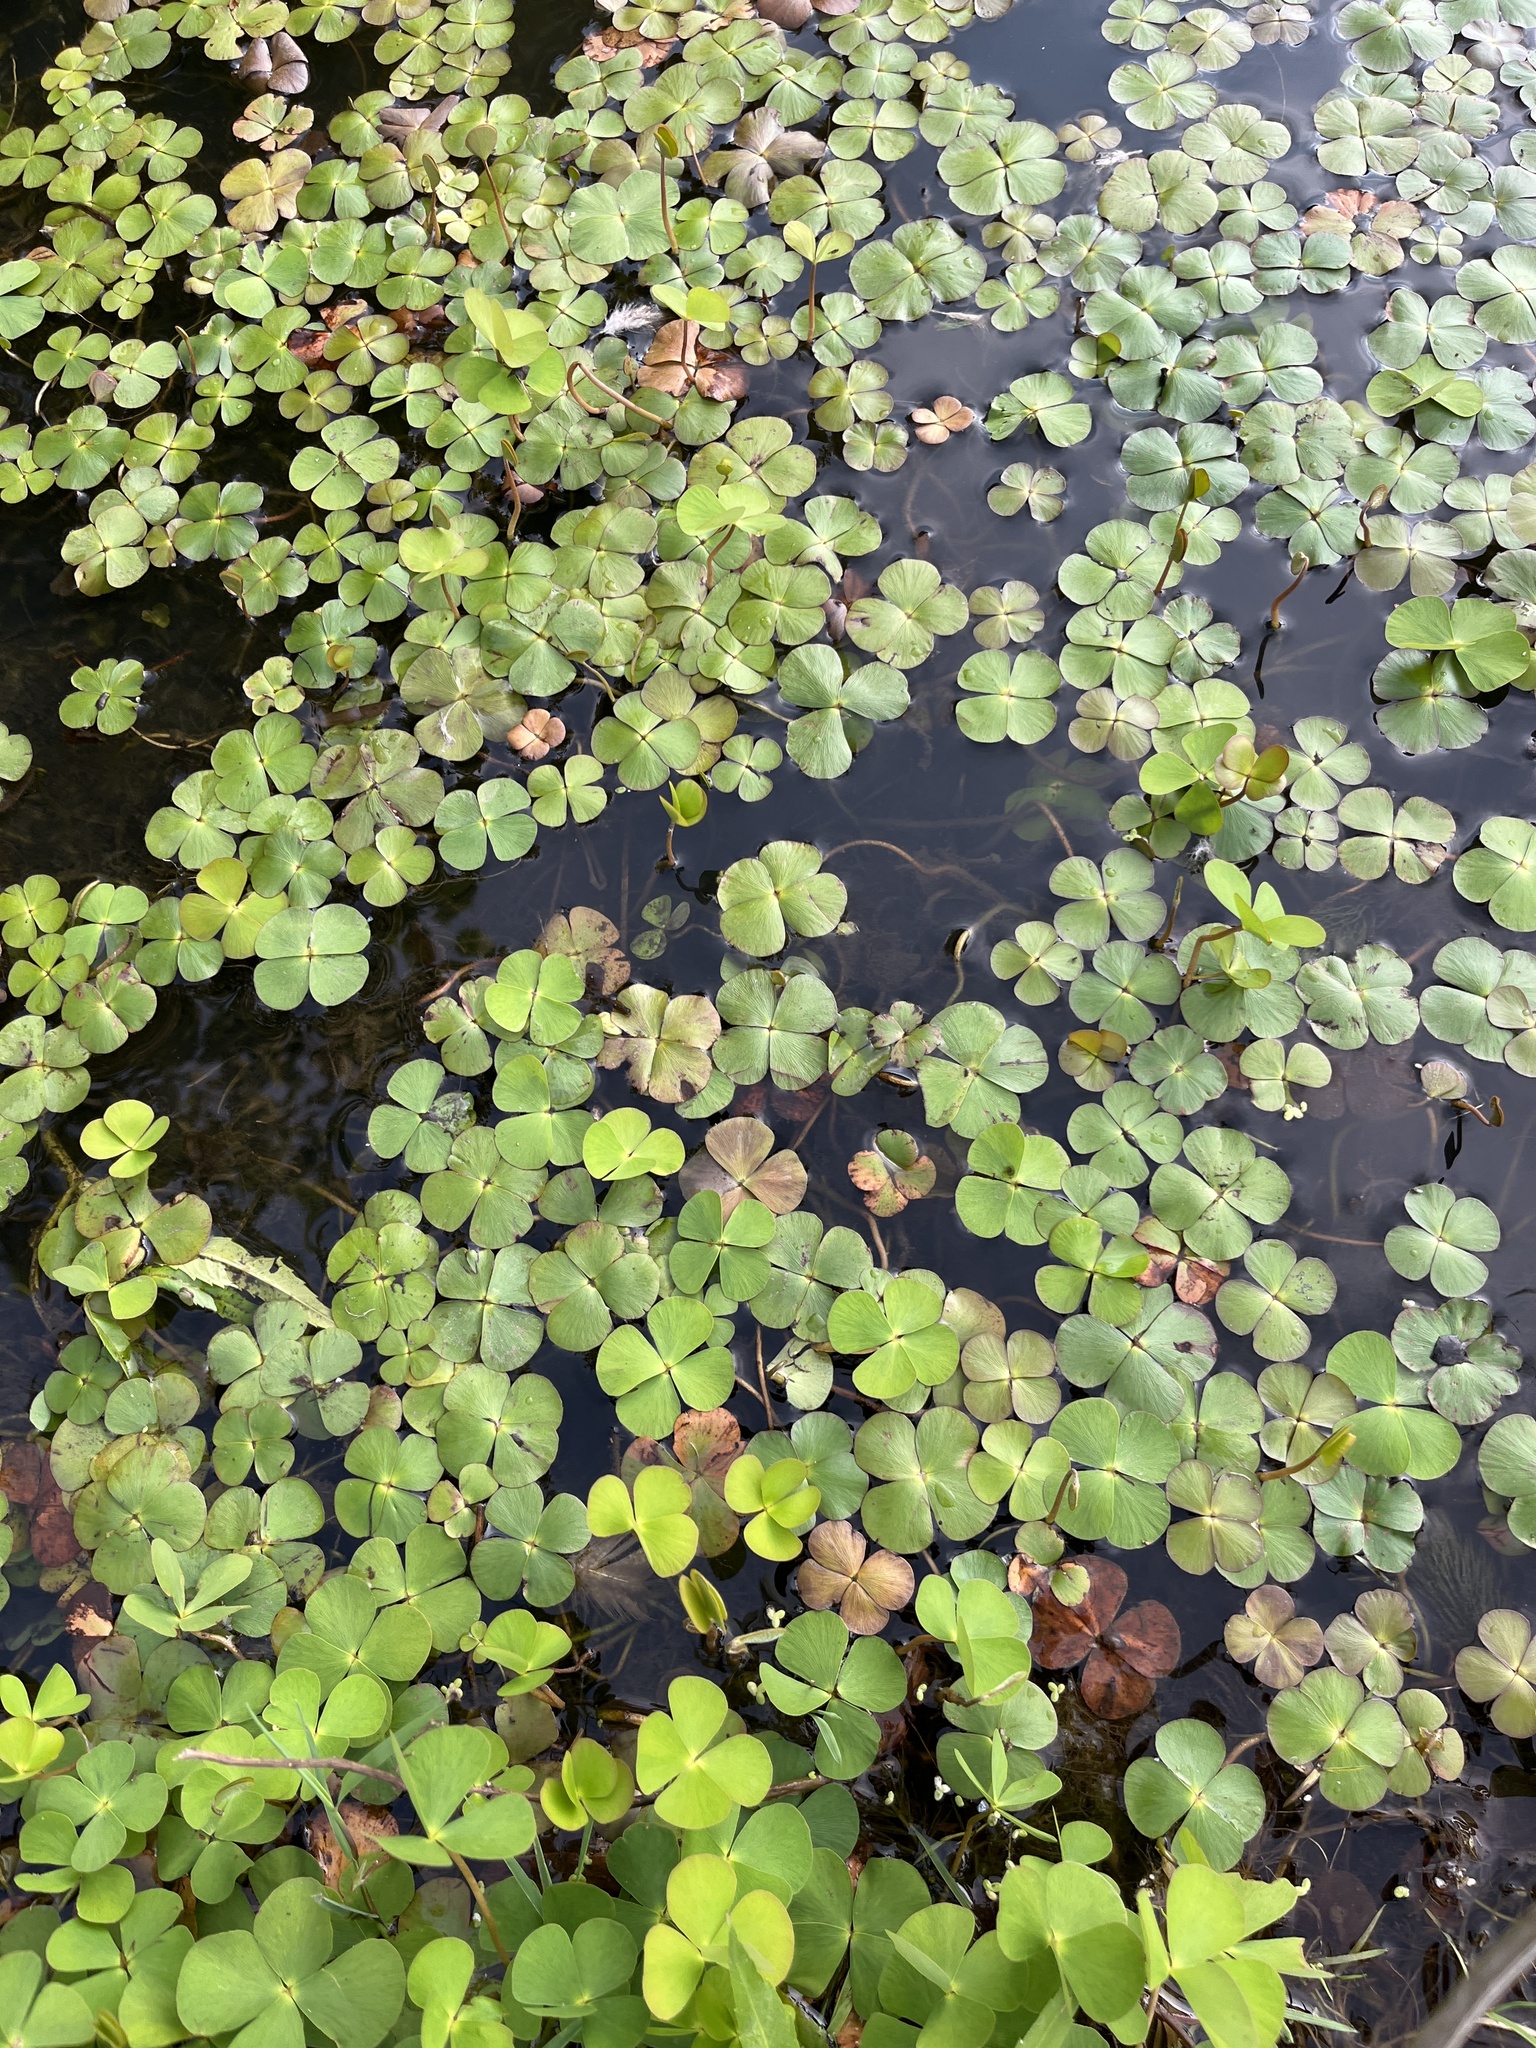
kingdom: Plantae
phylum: Tracheophyta
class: Polypodiopsida
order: Salviniales
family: Marsileaceae
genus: Marsilea
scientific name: Marsilea quadrifolia
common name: Water shamrock
